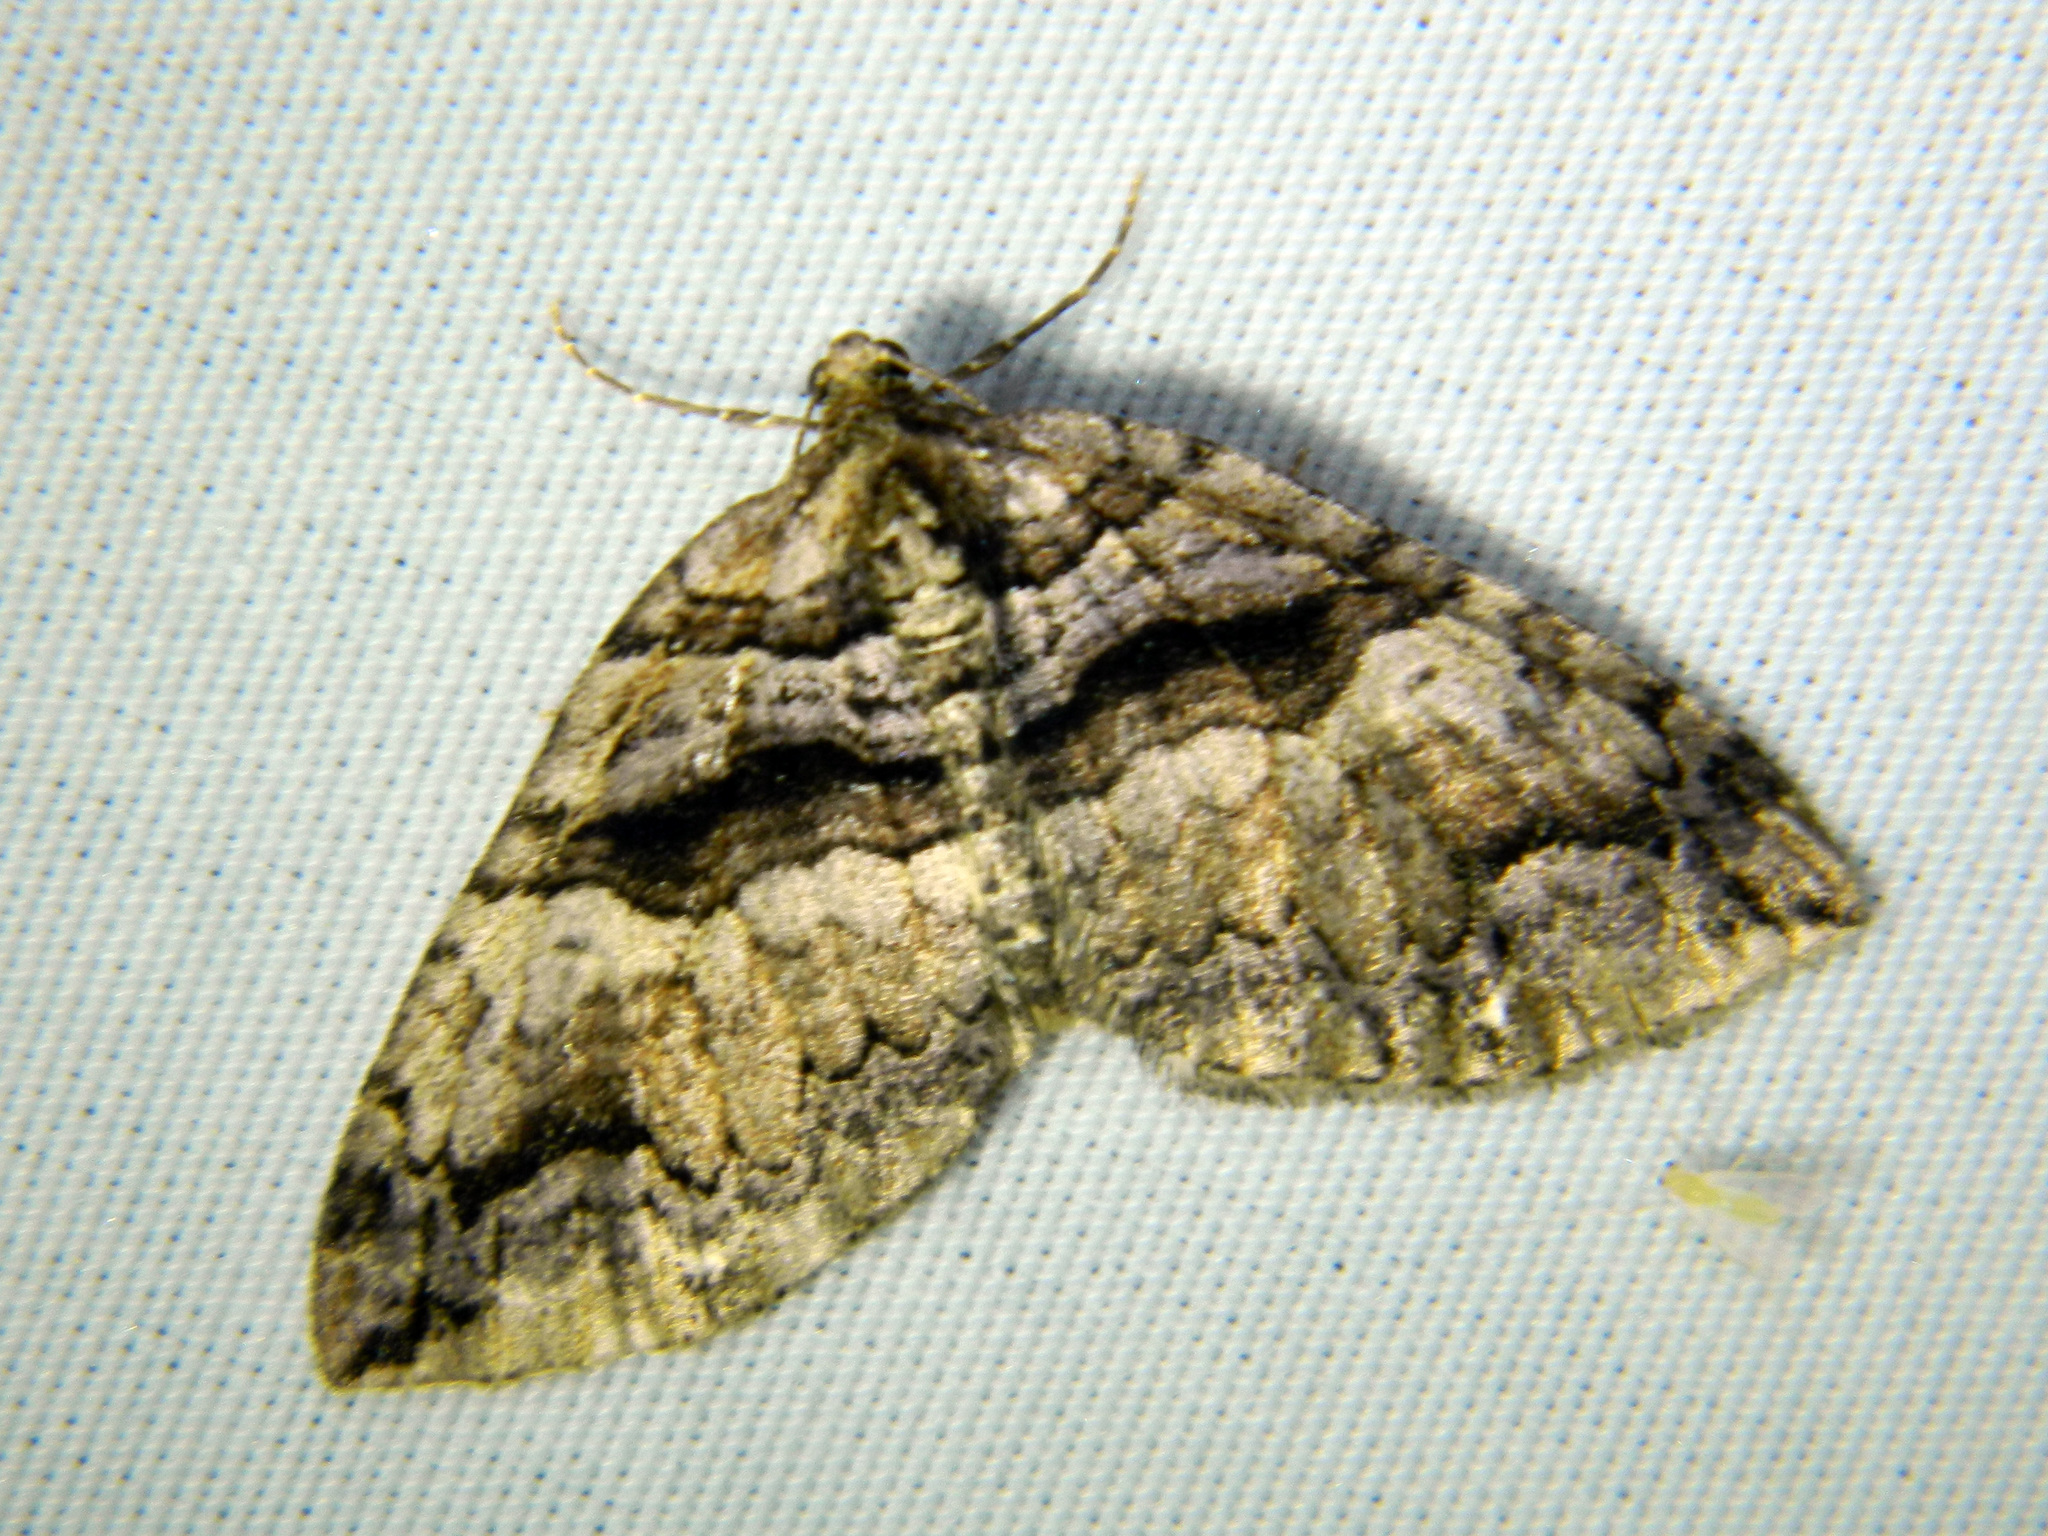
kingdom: Animalia
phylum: Arthropoda
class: Insecta
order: Lepidoptera
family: Geometridae
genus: Anticlea
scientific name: Anticlea vasiliata
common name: Variable carpet
